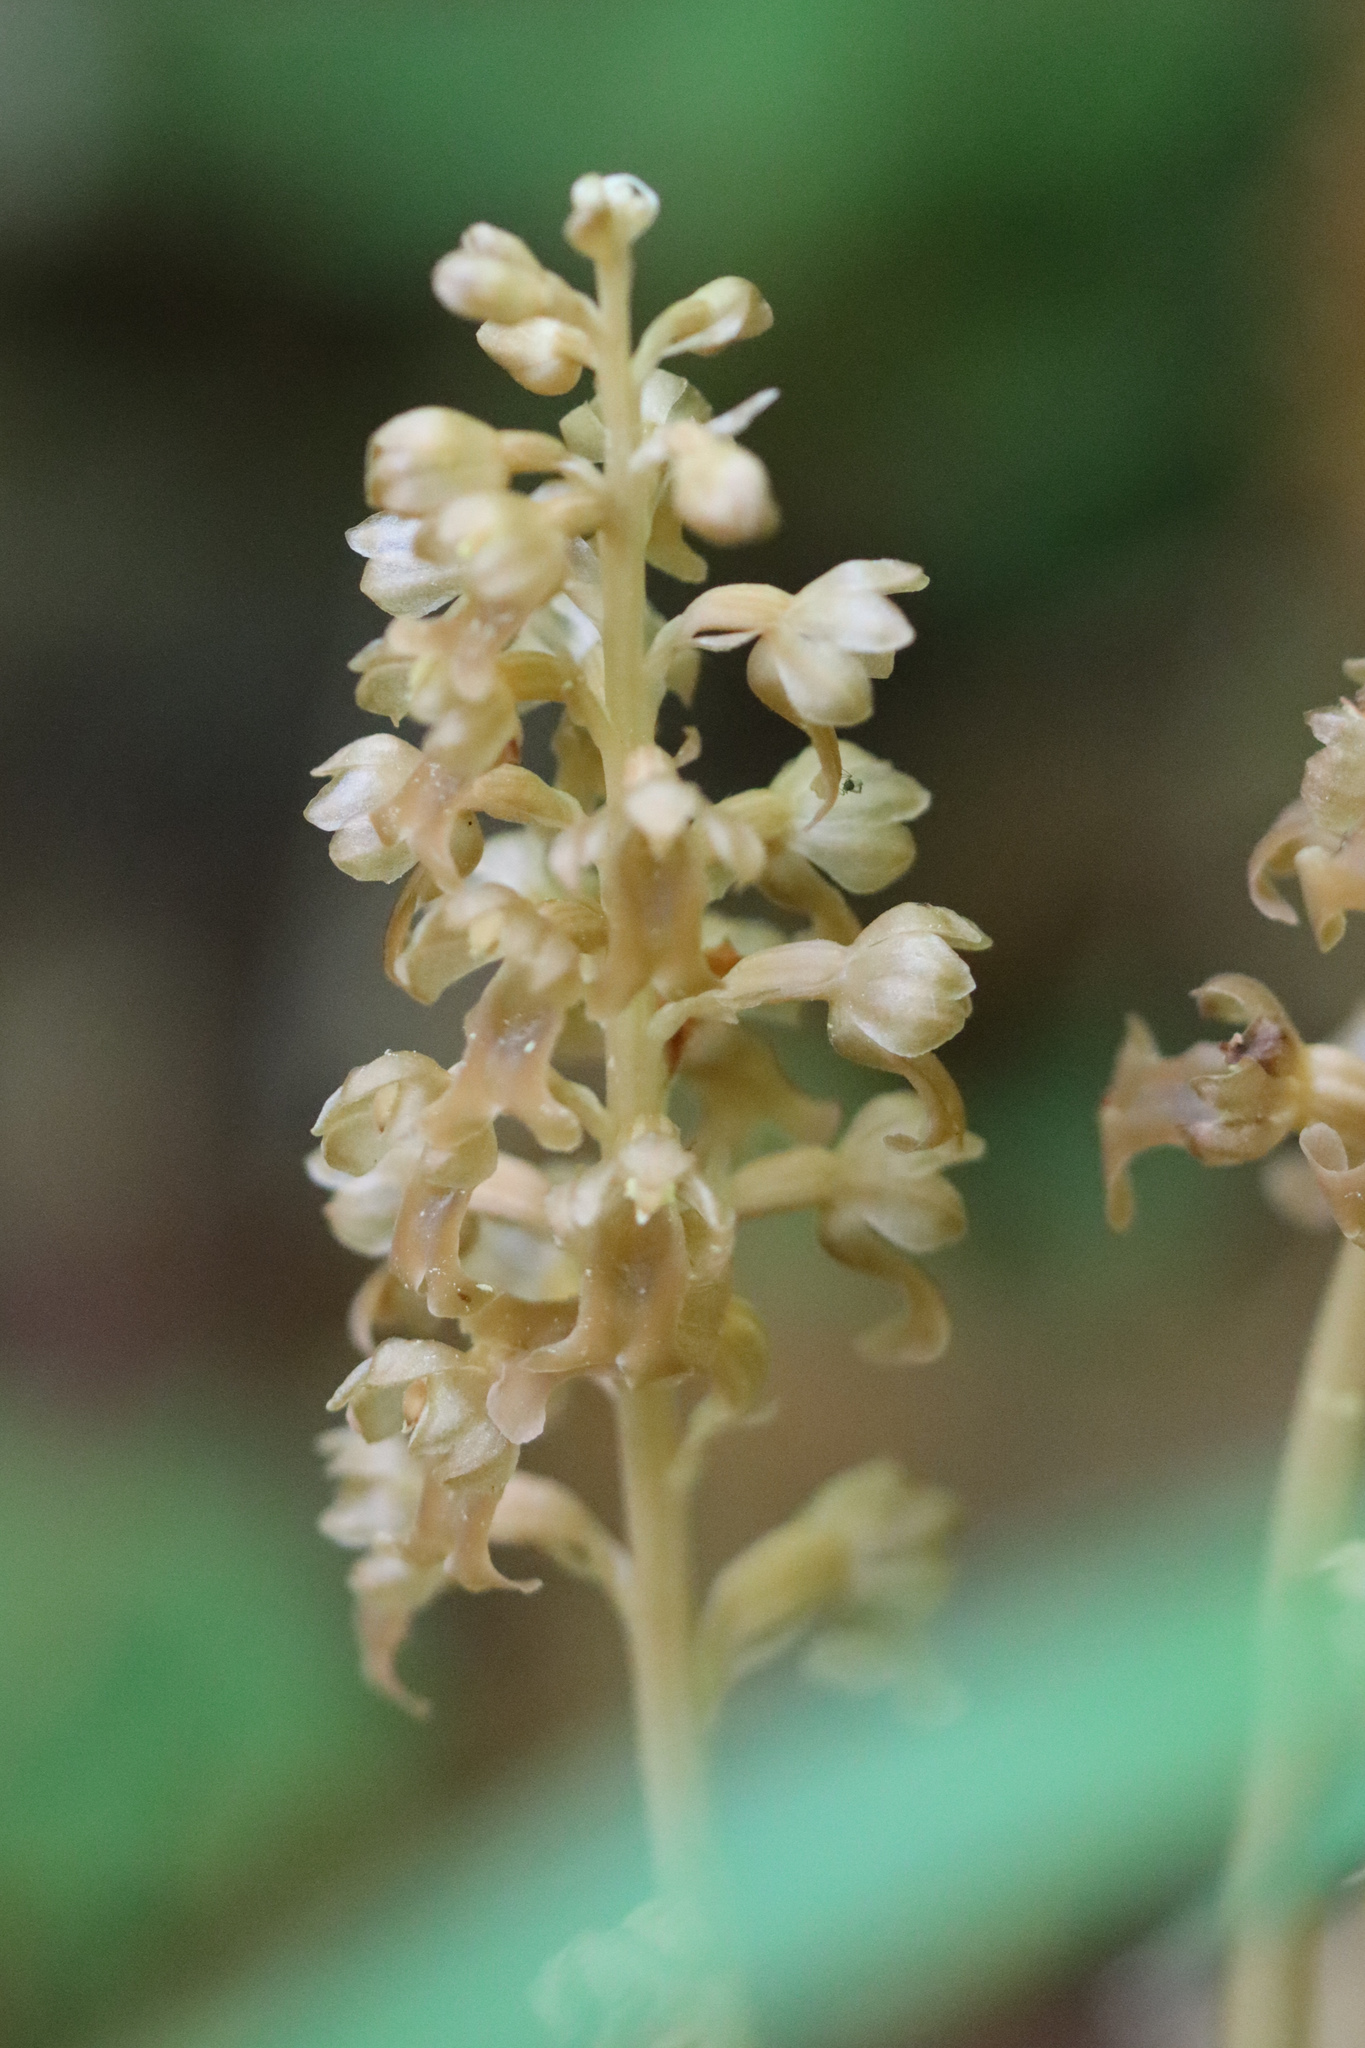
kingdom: Plantae
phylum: Tracheophyta
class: Liliopsida
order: Asparagales
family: Orchidaceae
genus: Neottia
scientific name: Neottia nidus-avis
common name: Bird's-nest orchid
